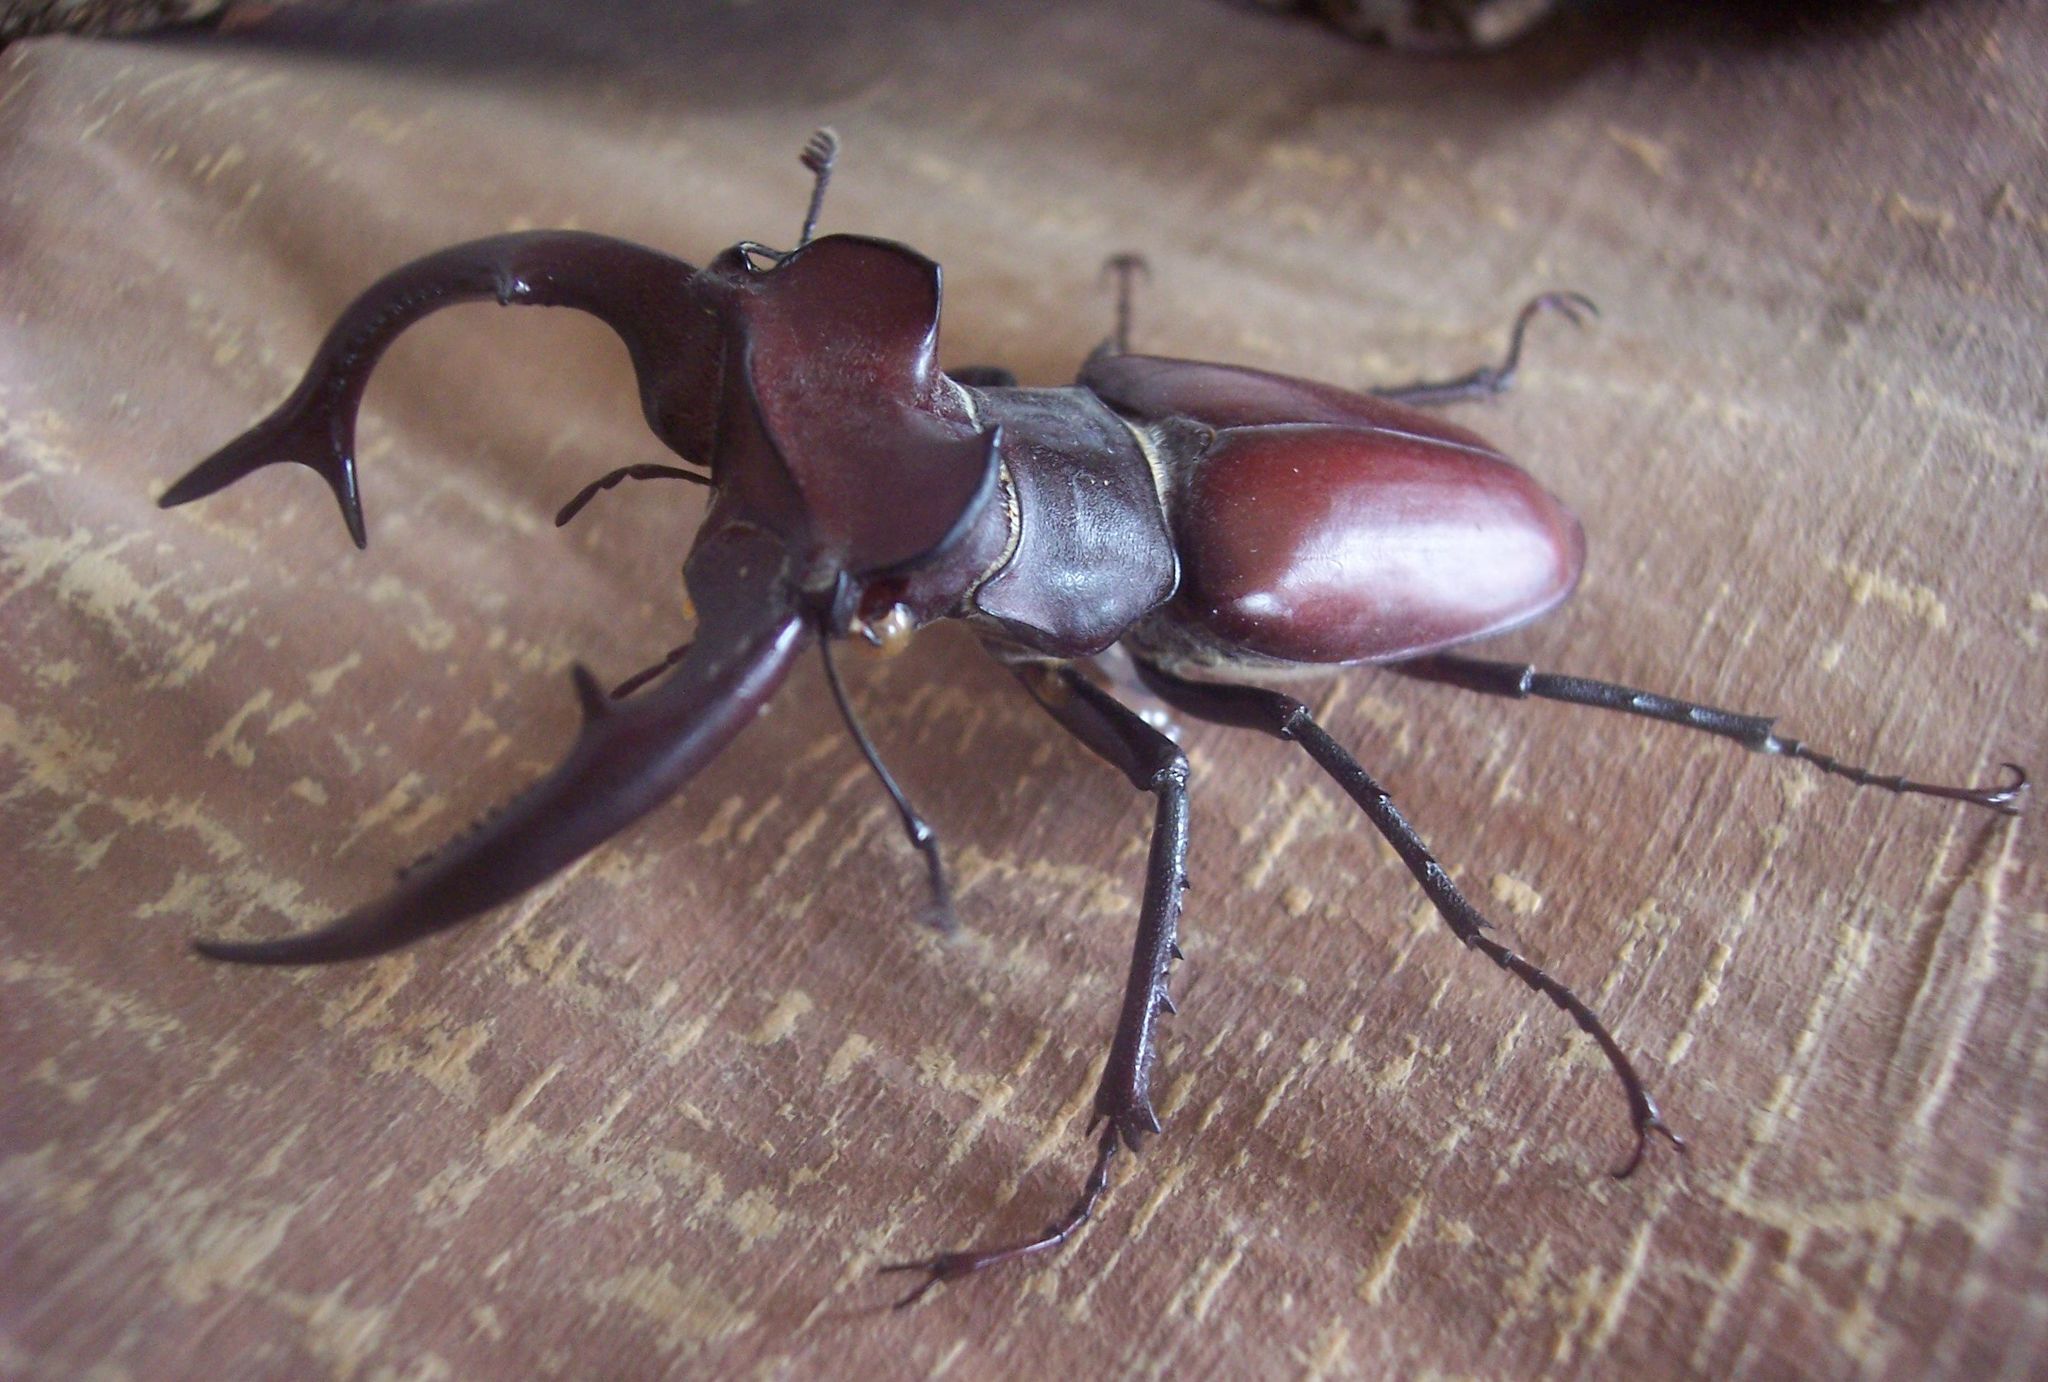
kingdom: Animalia
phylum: Arthropoda
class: Insecta
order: Coleoptera
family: Lucanidae
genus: Lucanus
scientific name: Lucanus elaphus
